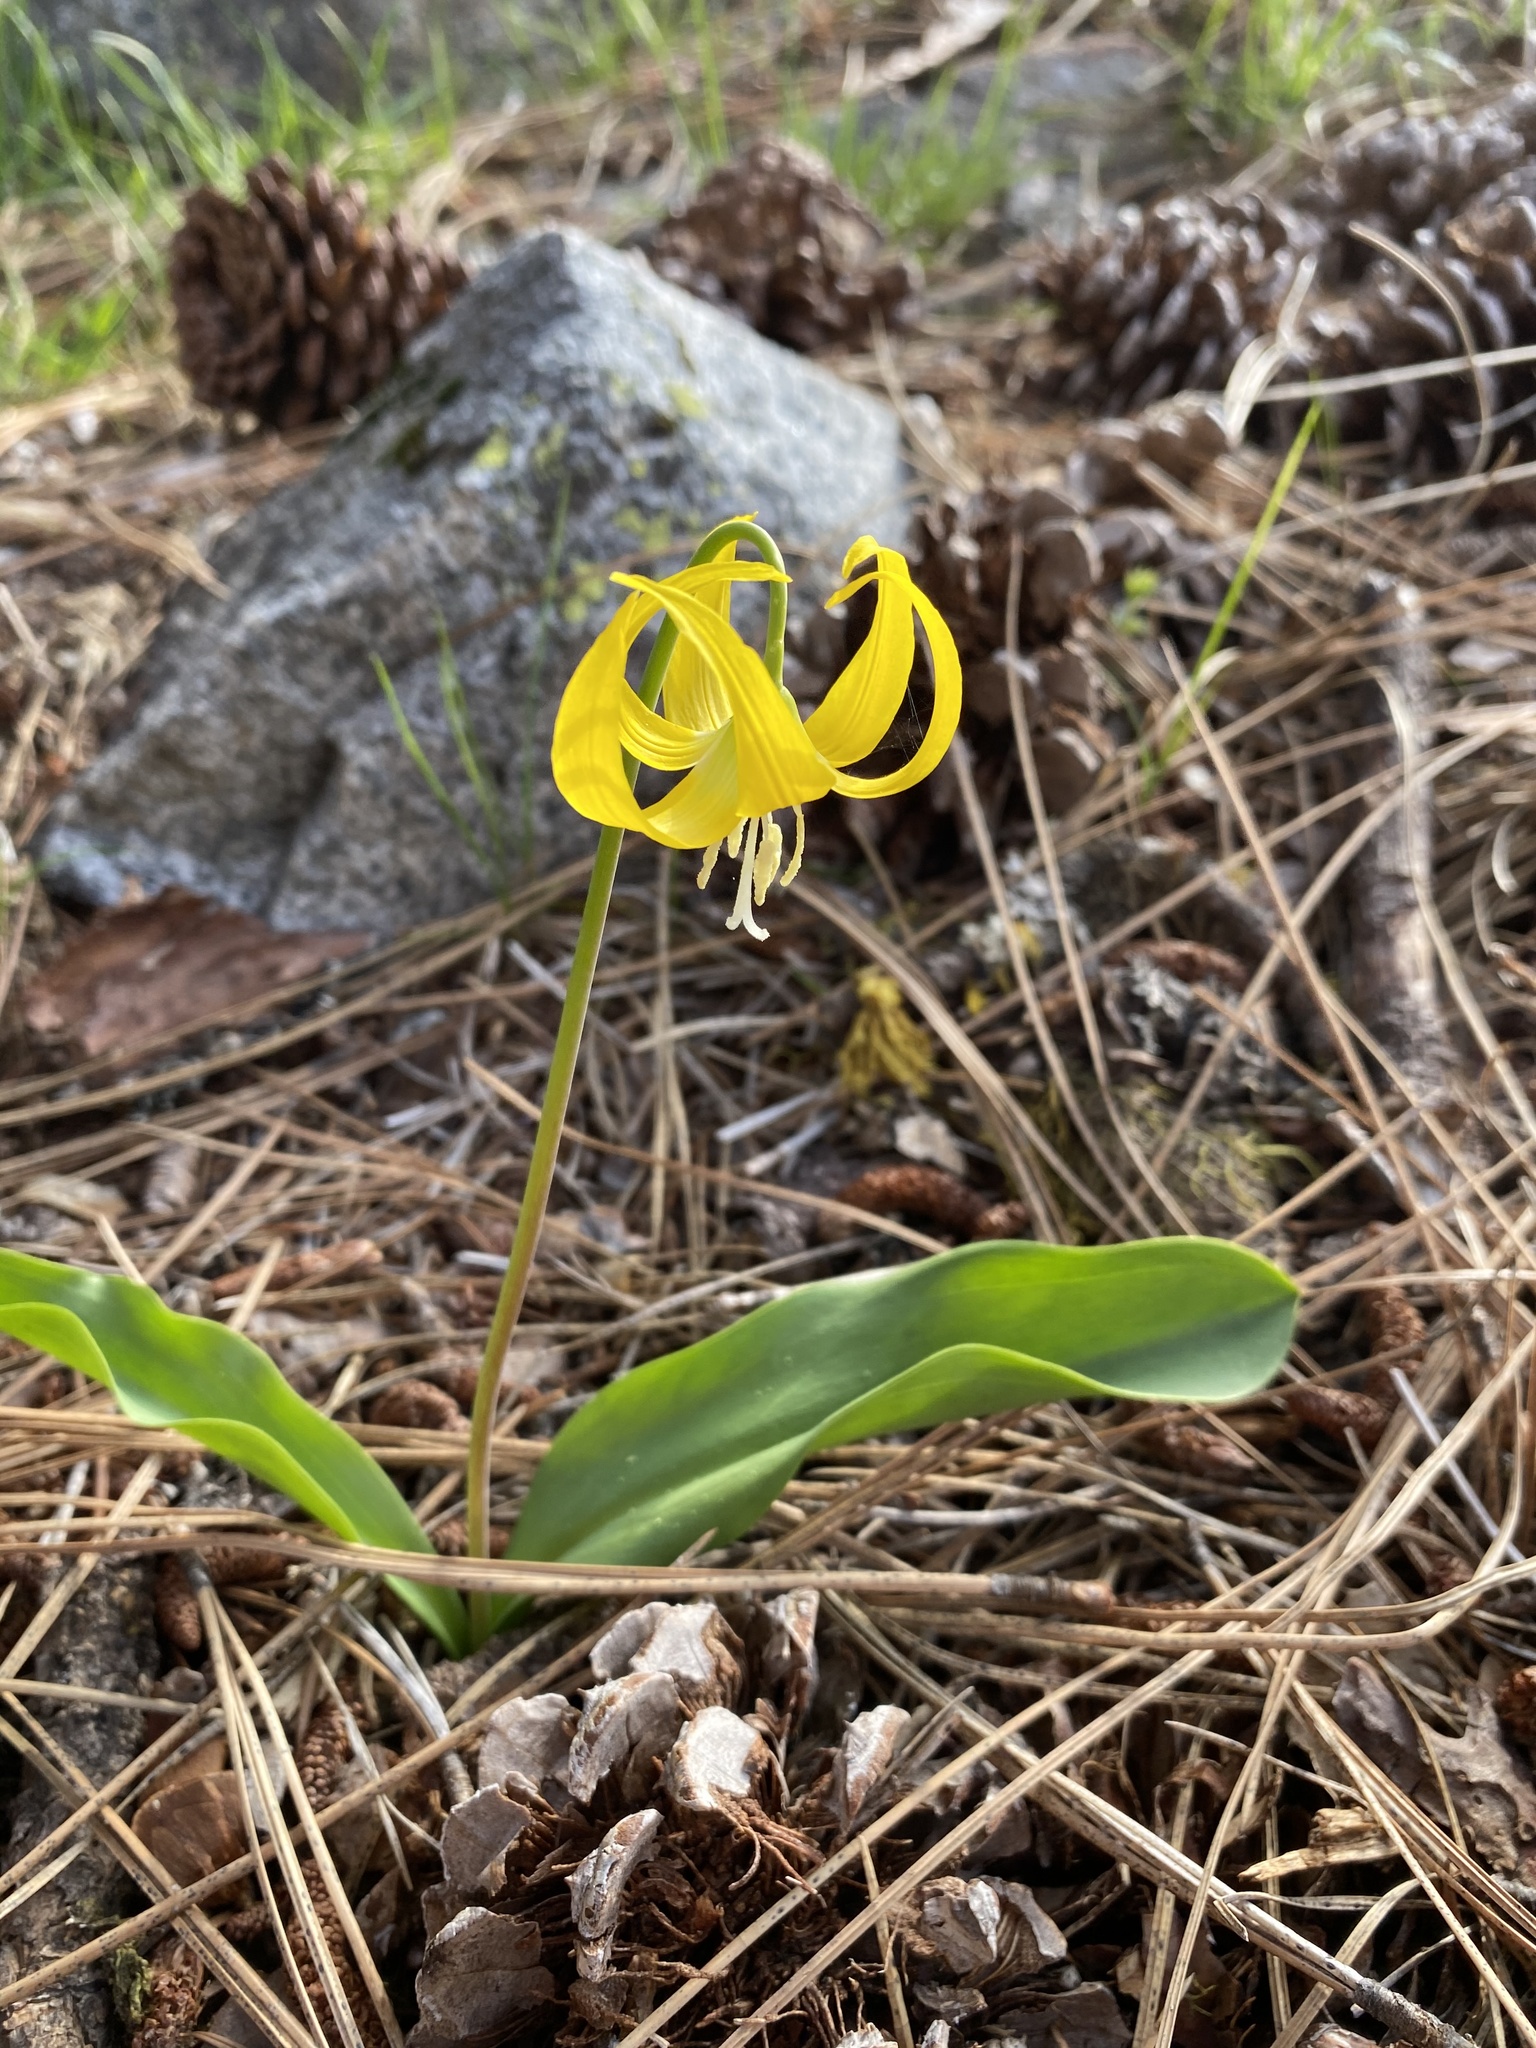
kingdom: Plantae
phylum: Tracheophyta
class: Liliopsida
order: Liliales
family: Liliaceae
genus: Erythronium
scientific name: Erythronium grandiflorum
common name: Avalanche-lily
